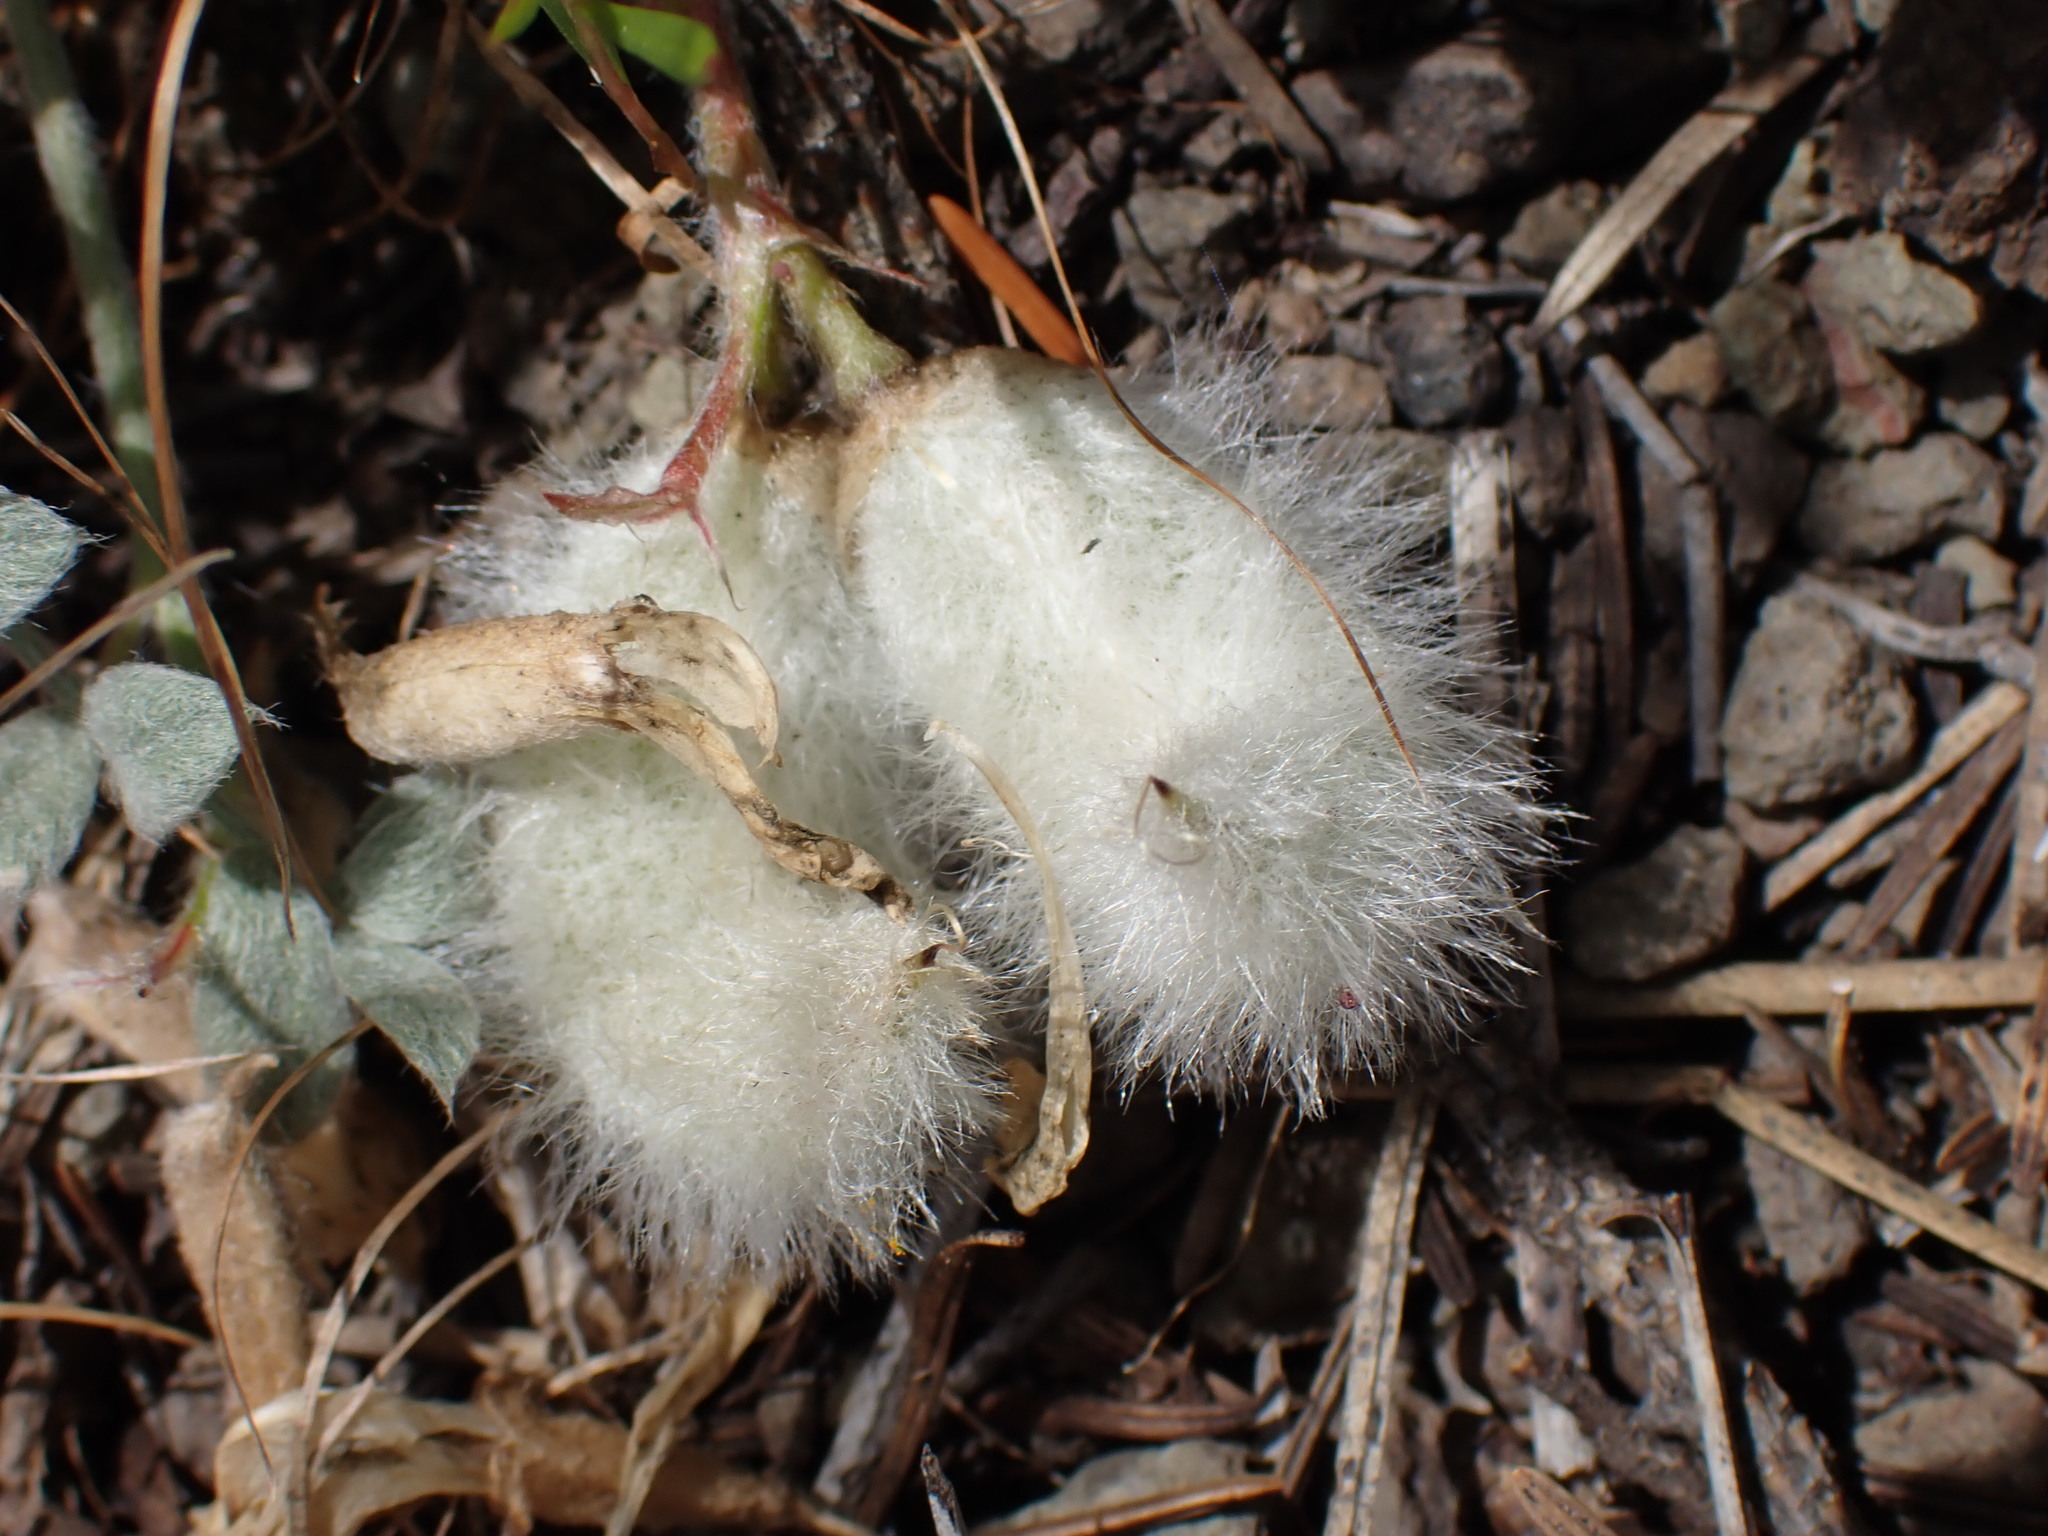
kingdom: Plantae
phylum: Tracheophyta
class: Magnoliopsida
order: Fabales
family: Fabaceae
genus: Astragalus
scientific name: Astragalus purshii
